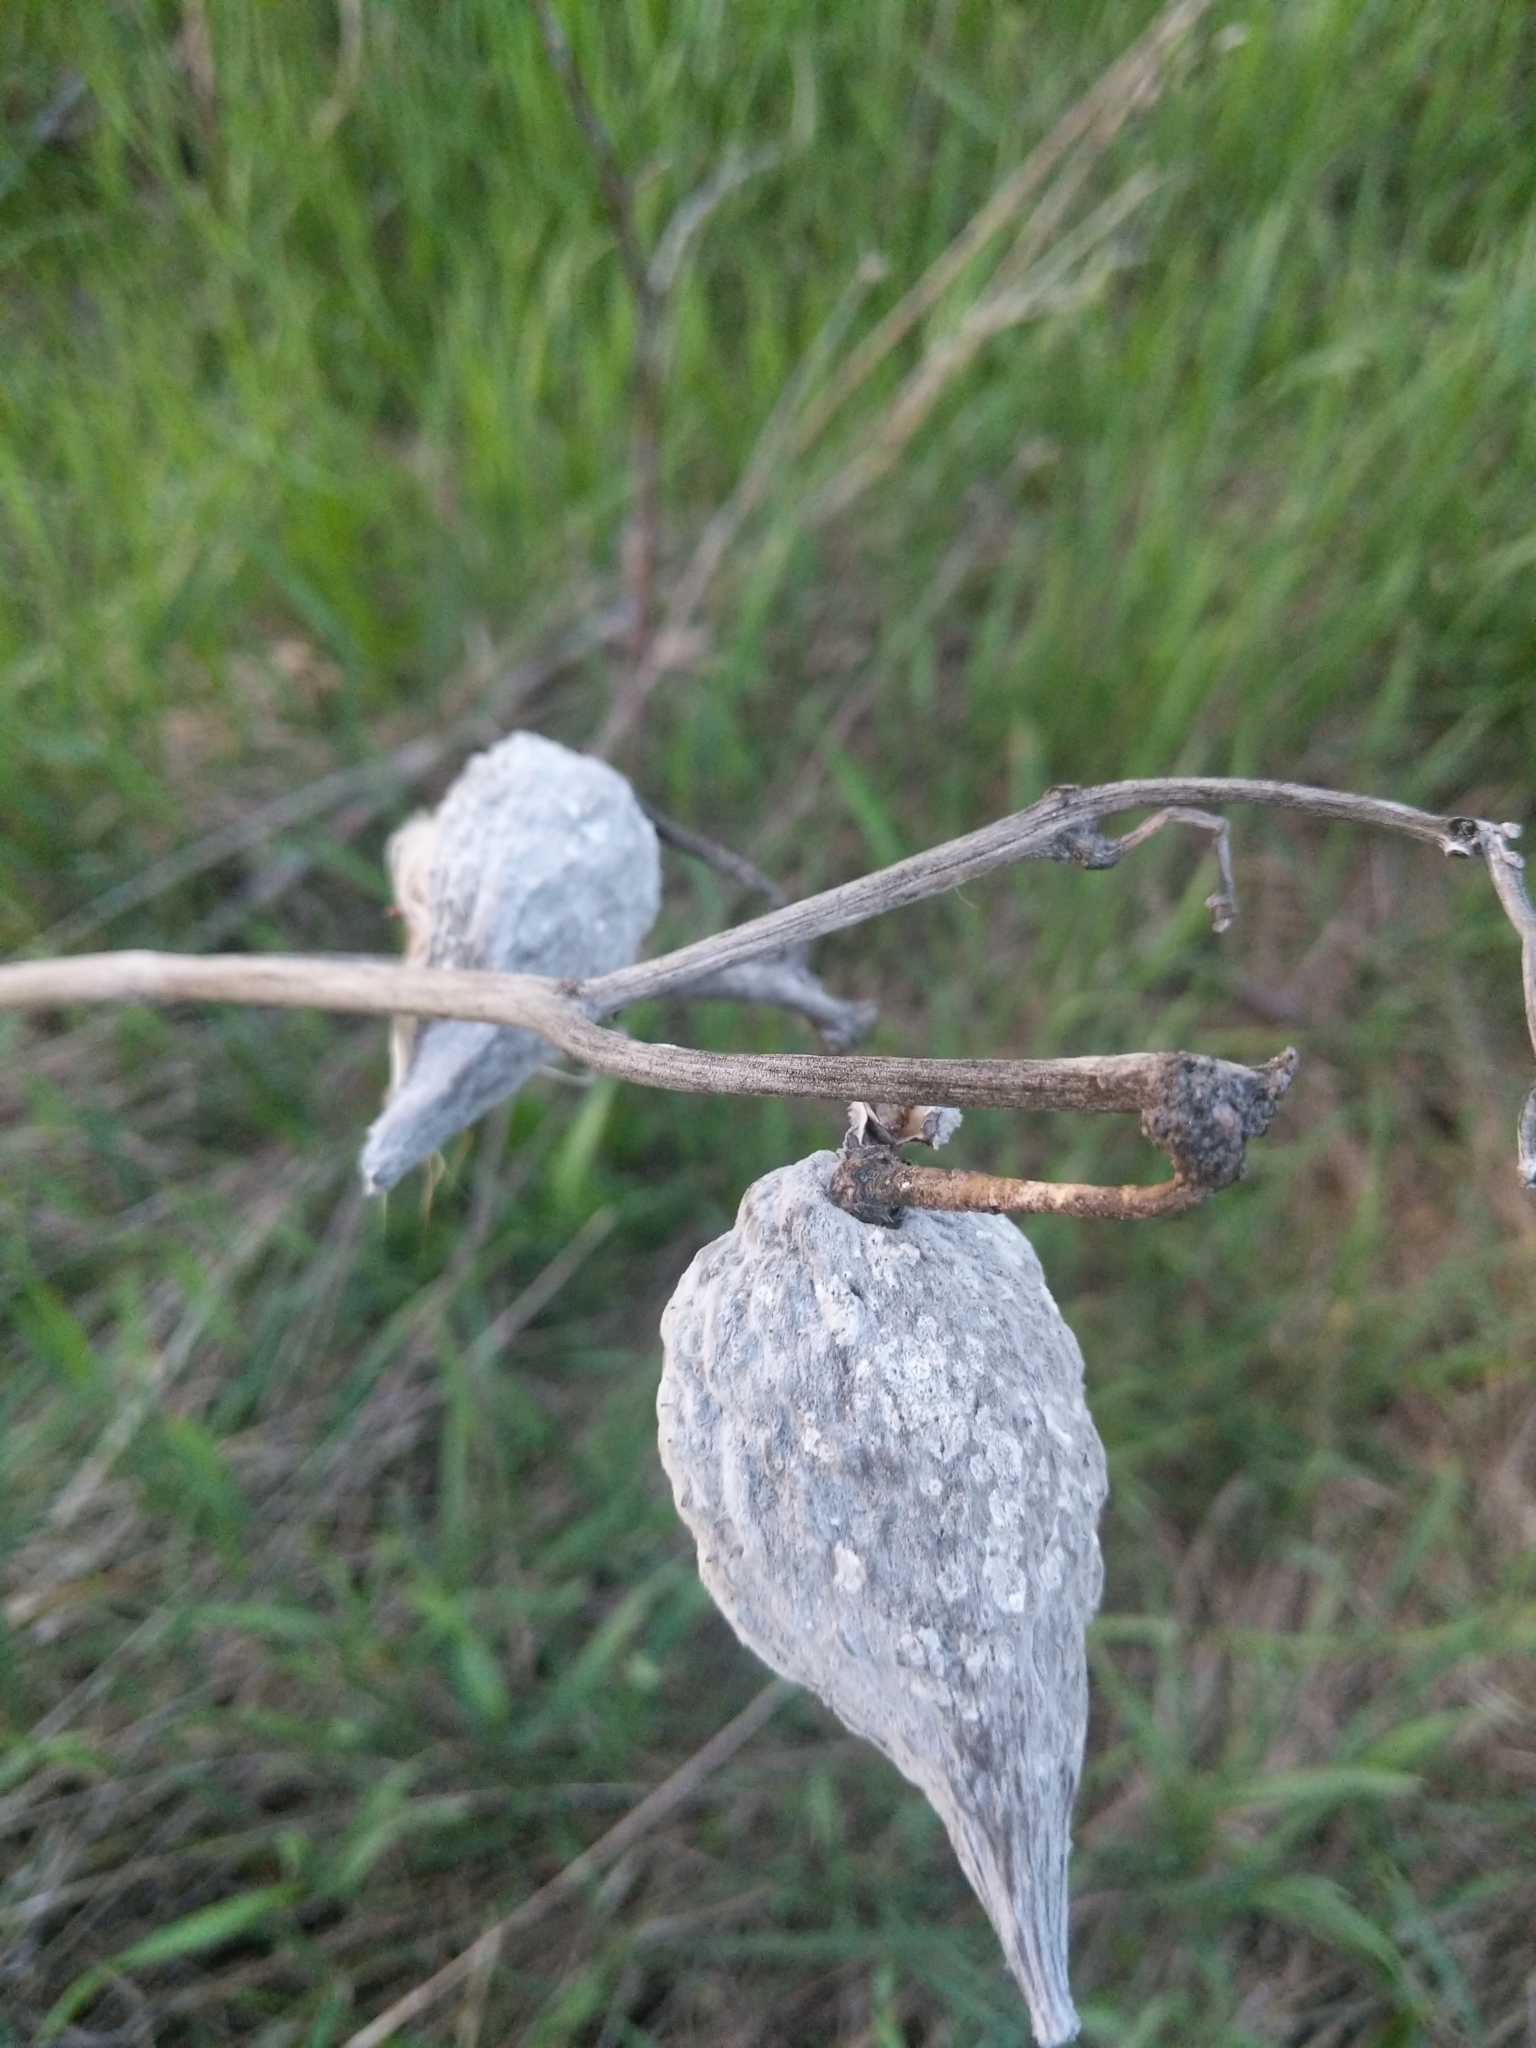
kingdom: Plantae
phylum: Tracheophyta
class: Magnoliopsida
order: Gentianales
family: Apocynaceae
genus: Asclepias
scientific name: Asclepias syriaca
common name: Common milkweed
